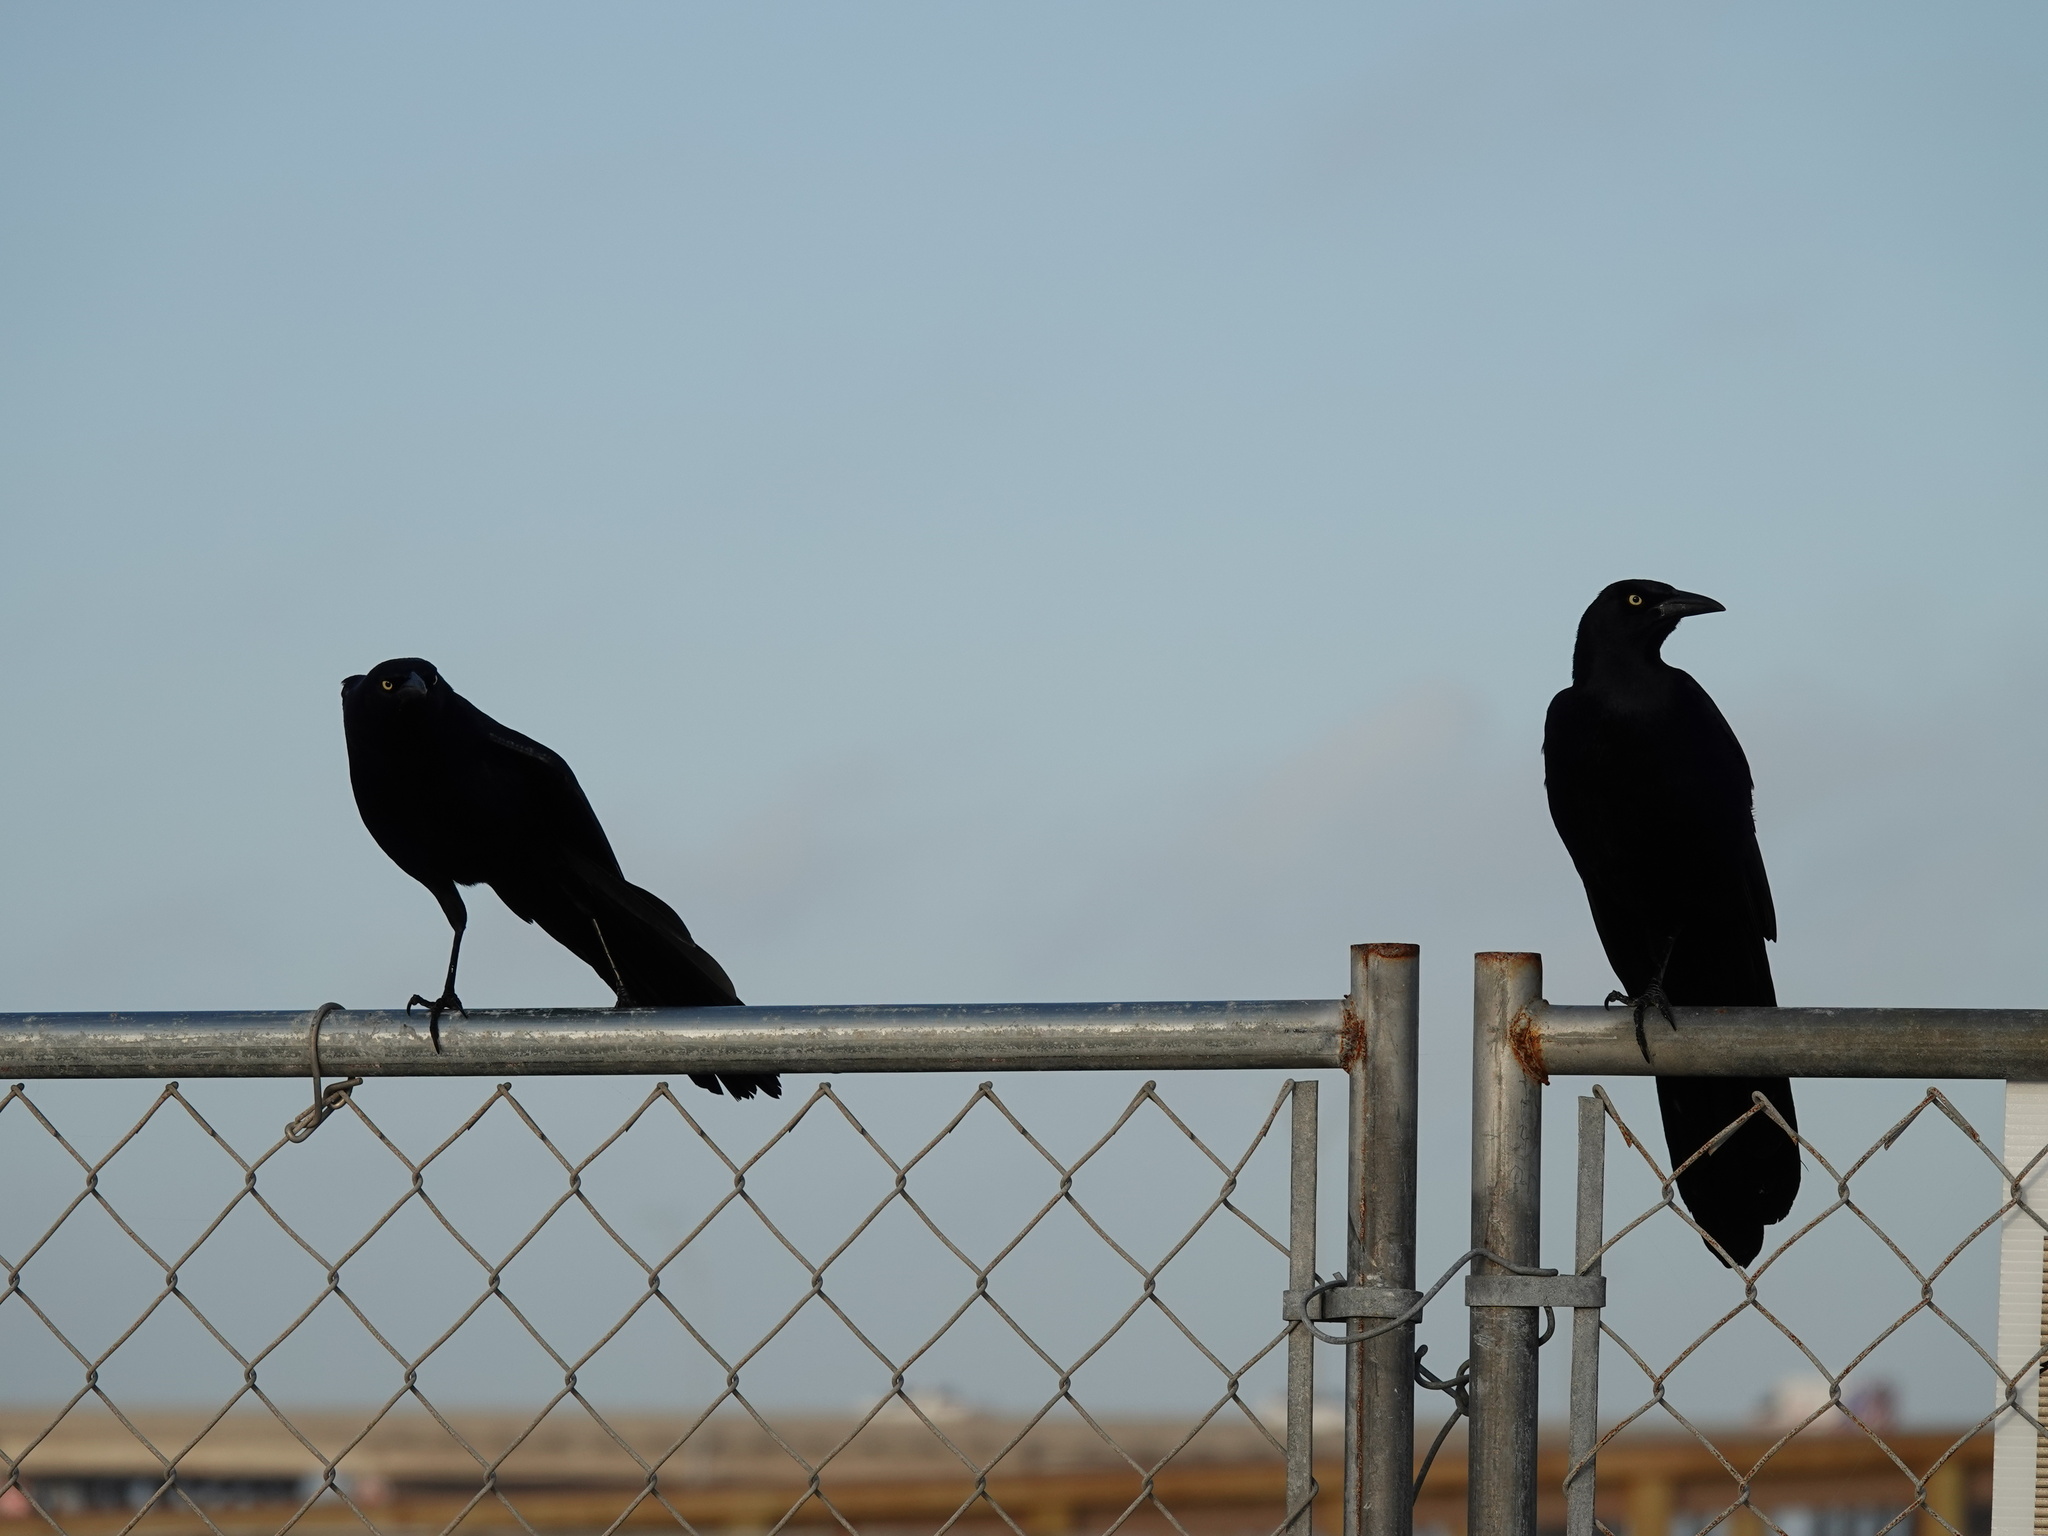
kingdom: Animalia
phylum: Chordata
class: Aves
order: Passeriformes
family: Icteridae
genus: Quiscalus
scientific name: Quiscalus mexicanus
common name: Great-tailed grackle
